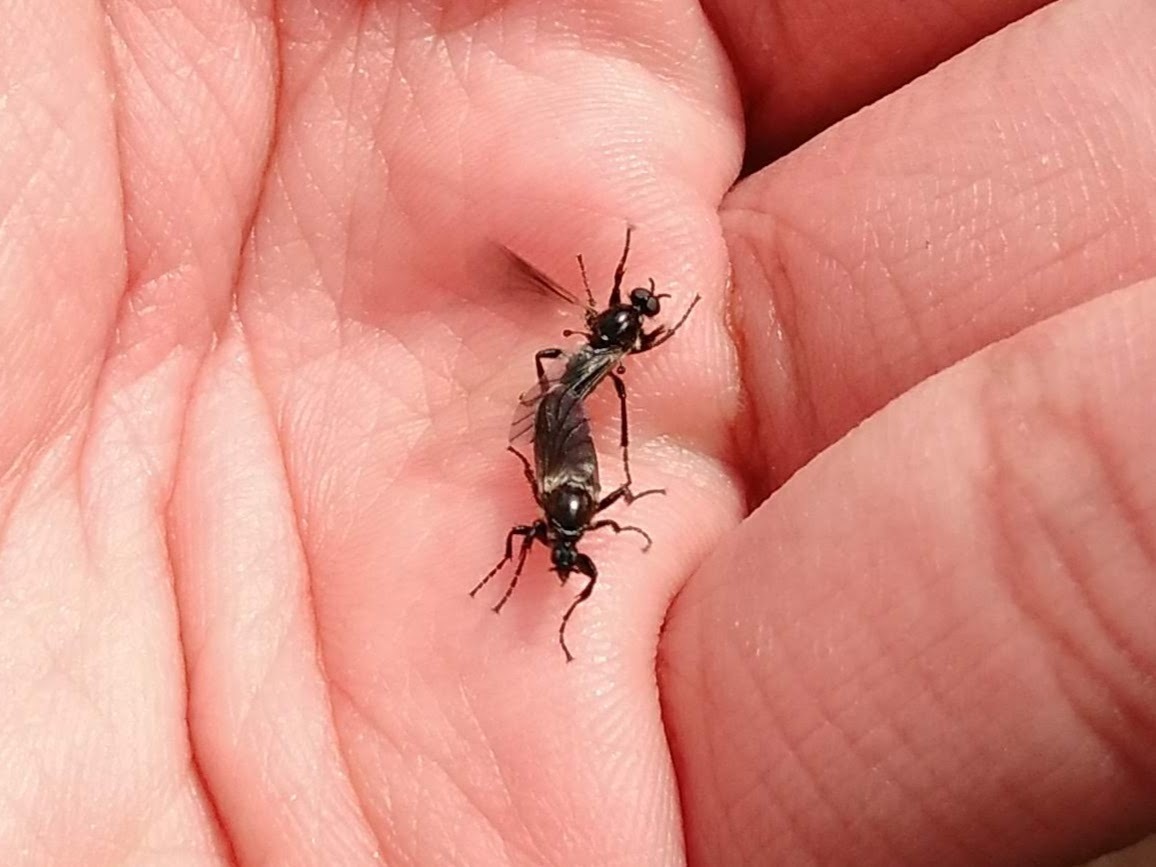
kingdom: Animalia
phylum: Arthropoda
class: Insecta
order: Diptera
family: Bibionidae
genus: Bibio
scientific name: Bibio albipennis
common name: White-winged march fly
